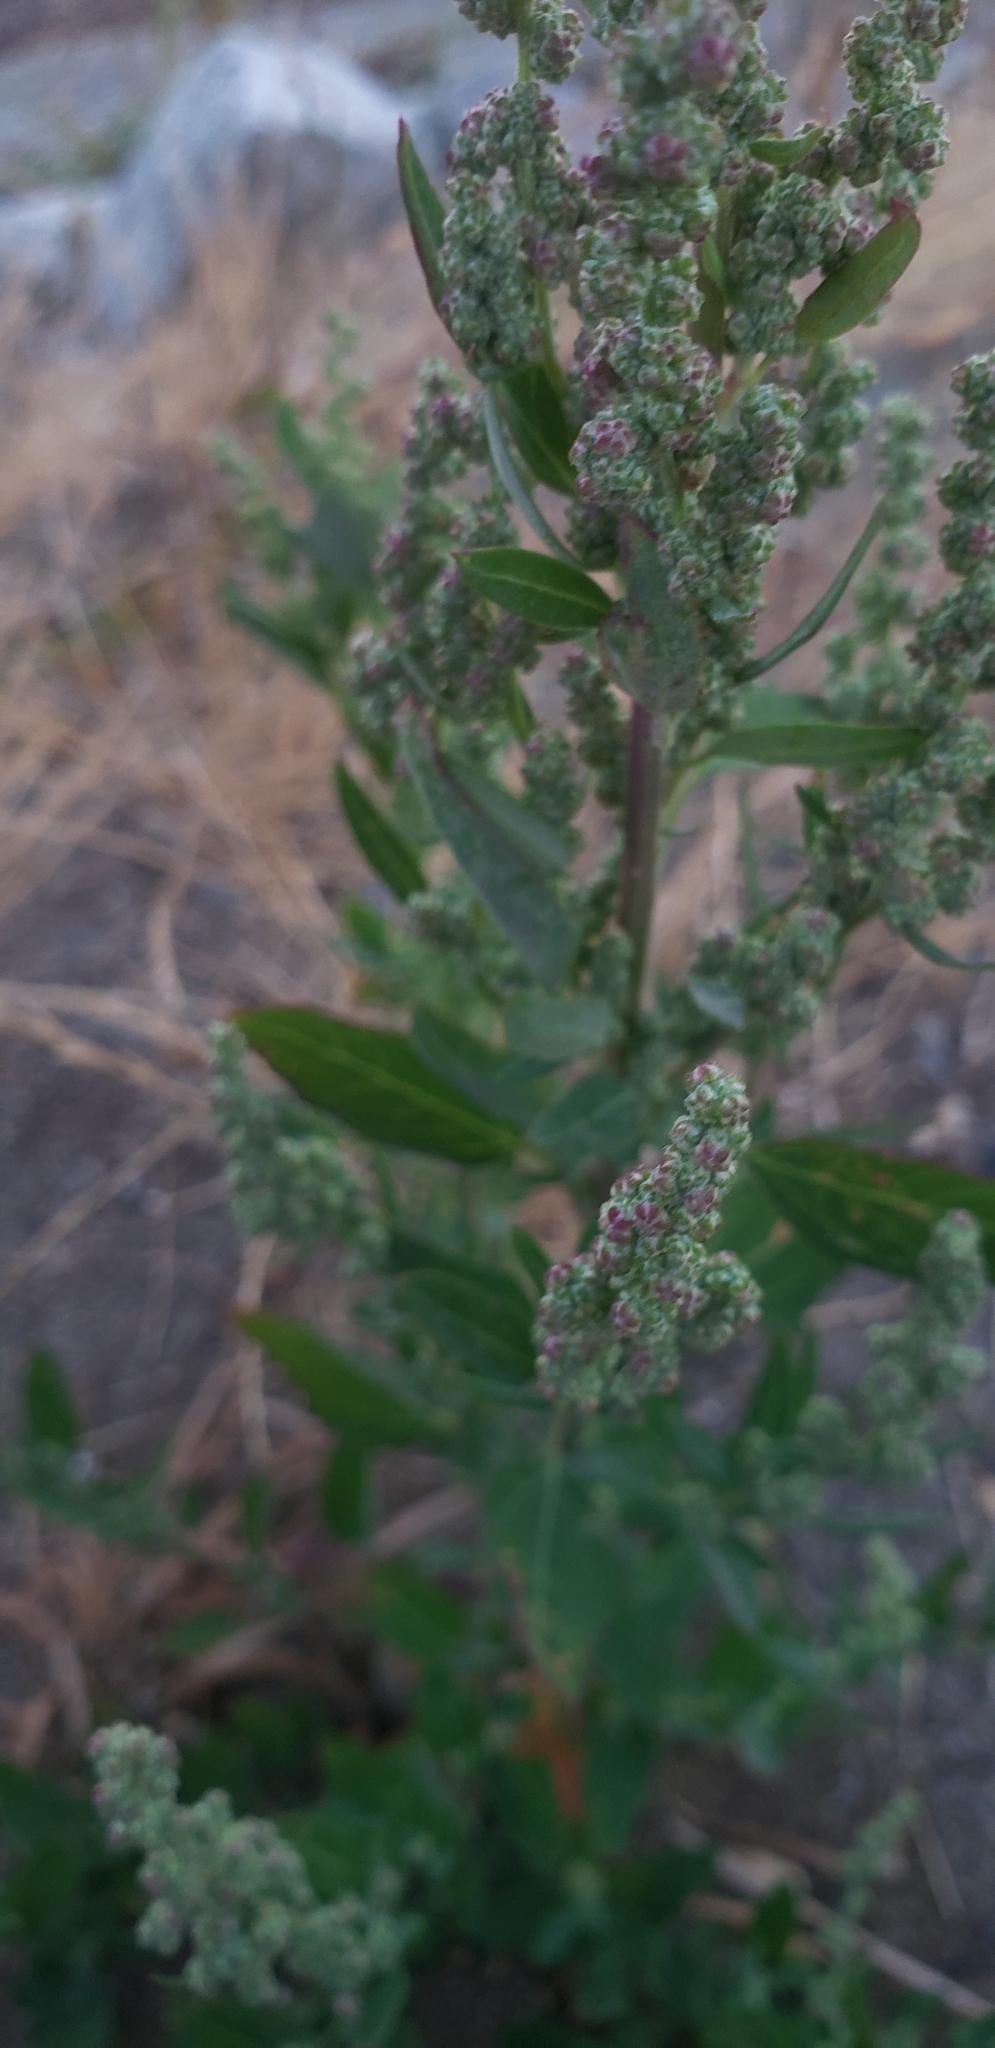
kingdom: Plantae
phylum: Tracheophyta
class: Magnoliopsida
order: Caryophyllales
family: Amaranthaceae
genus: Chenopodium
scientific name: Chenopodium album
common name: Fat-hen
